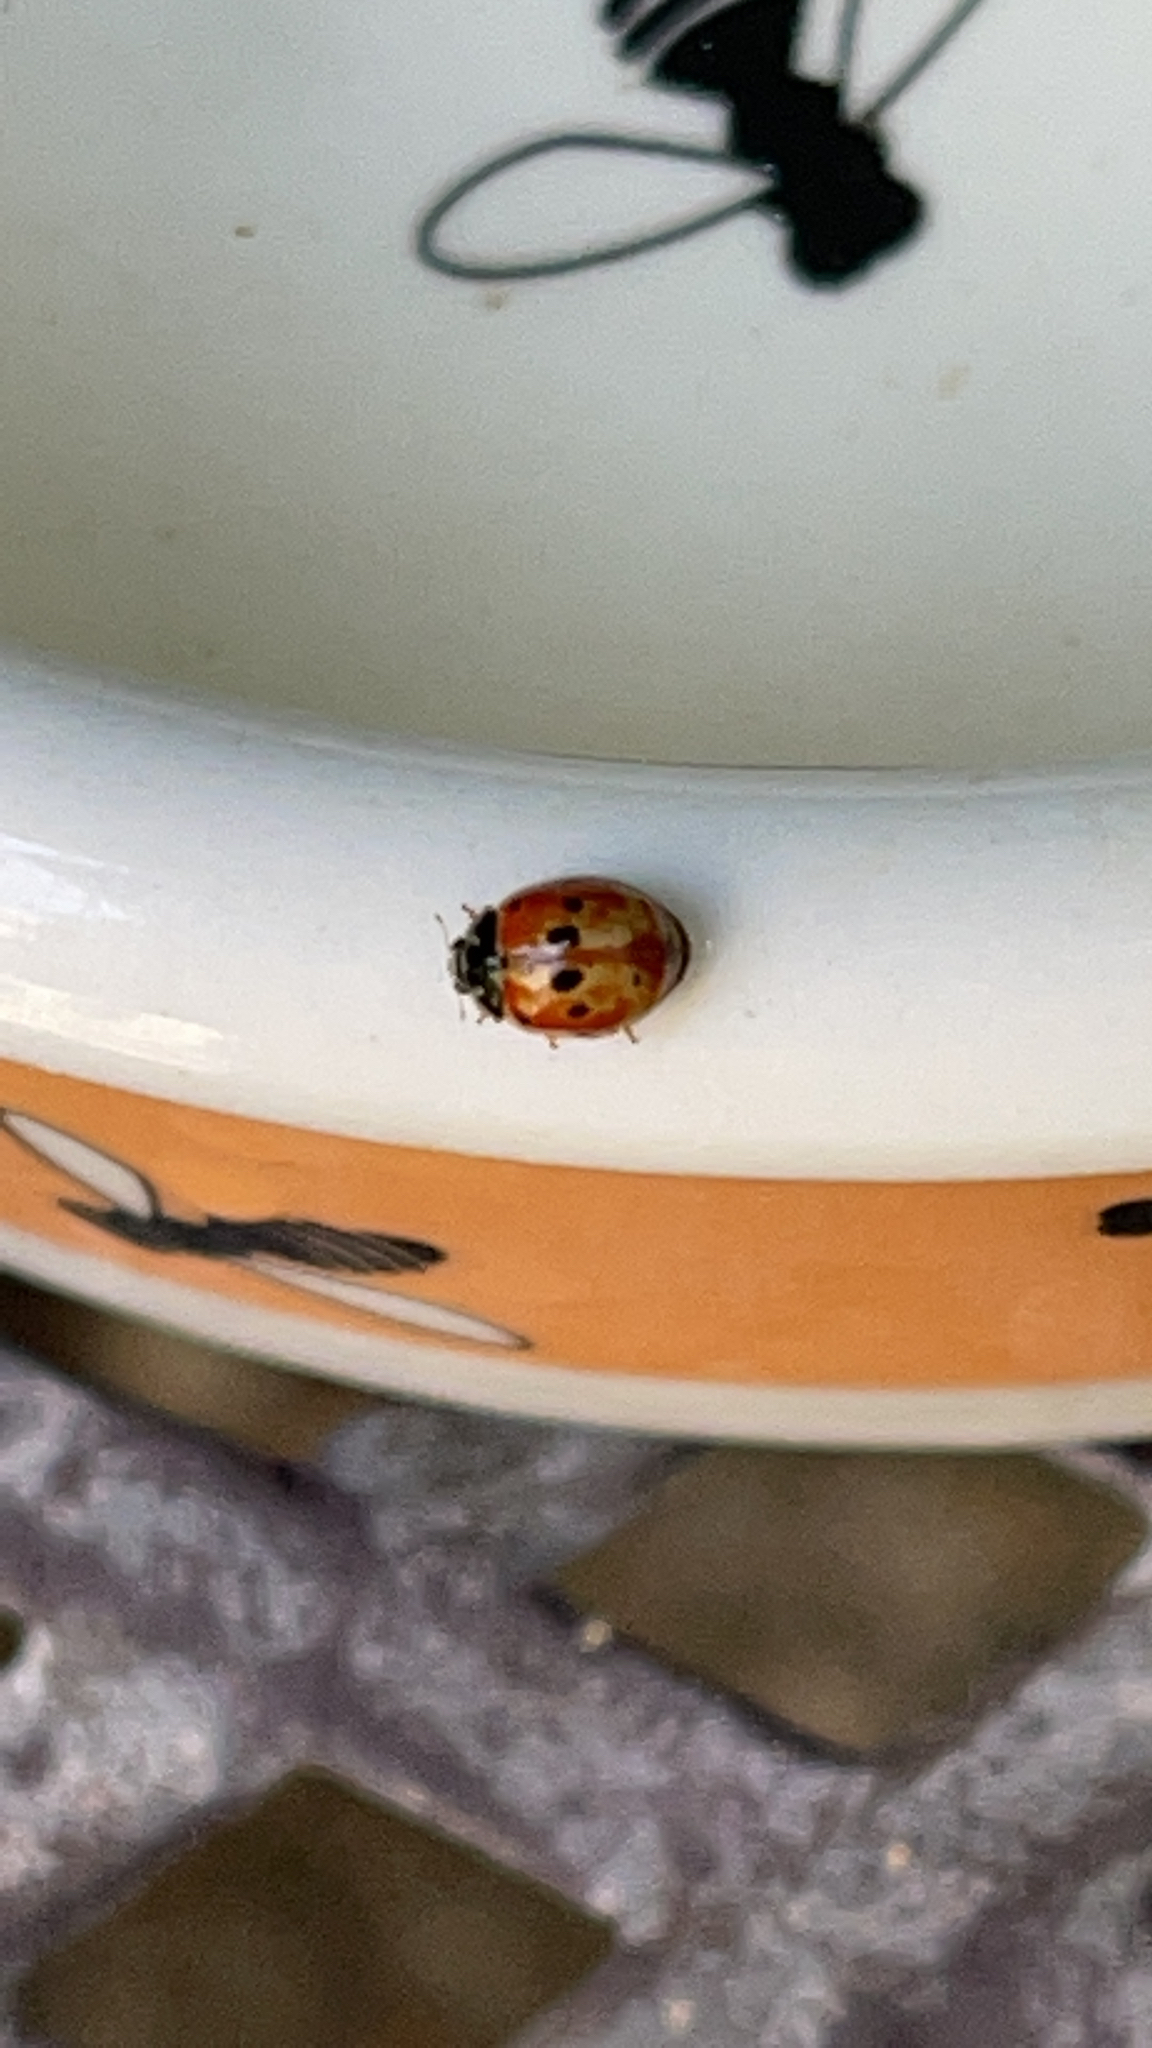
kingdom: Animalia
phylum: Arthropoda
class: Insecta
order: Coleoptera
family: Coccinellidae
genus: Adalia
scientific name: Adalia decempunctata
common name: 10-spot ladybird
